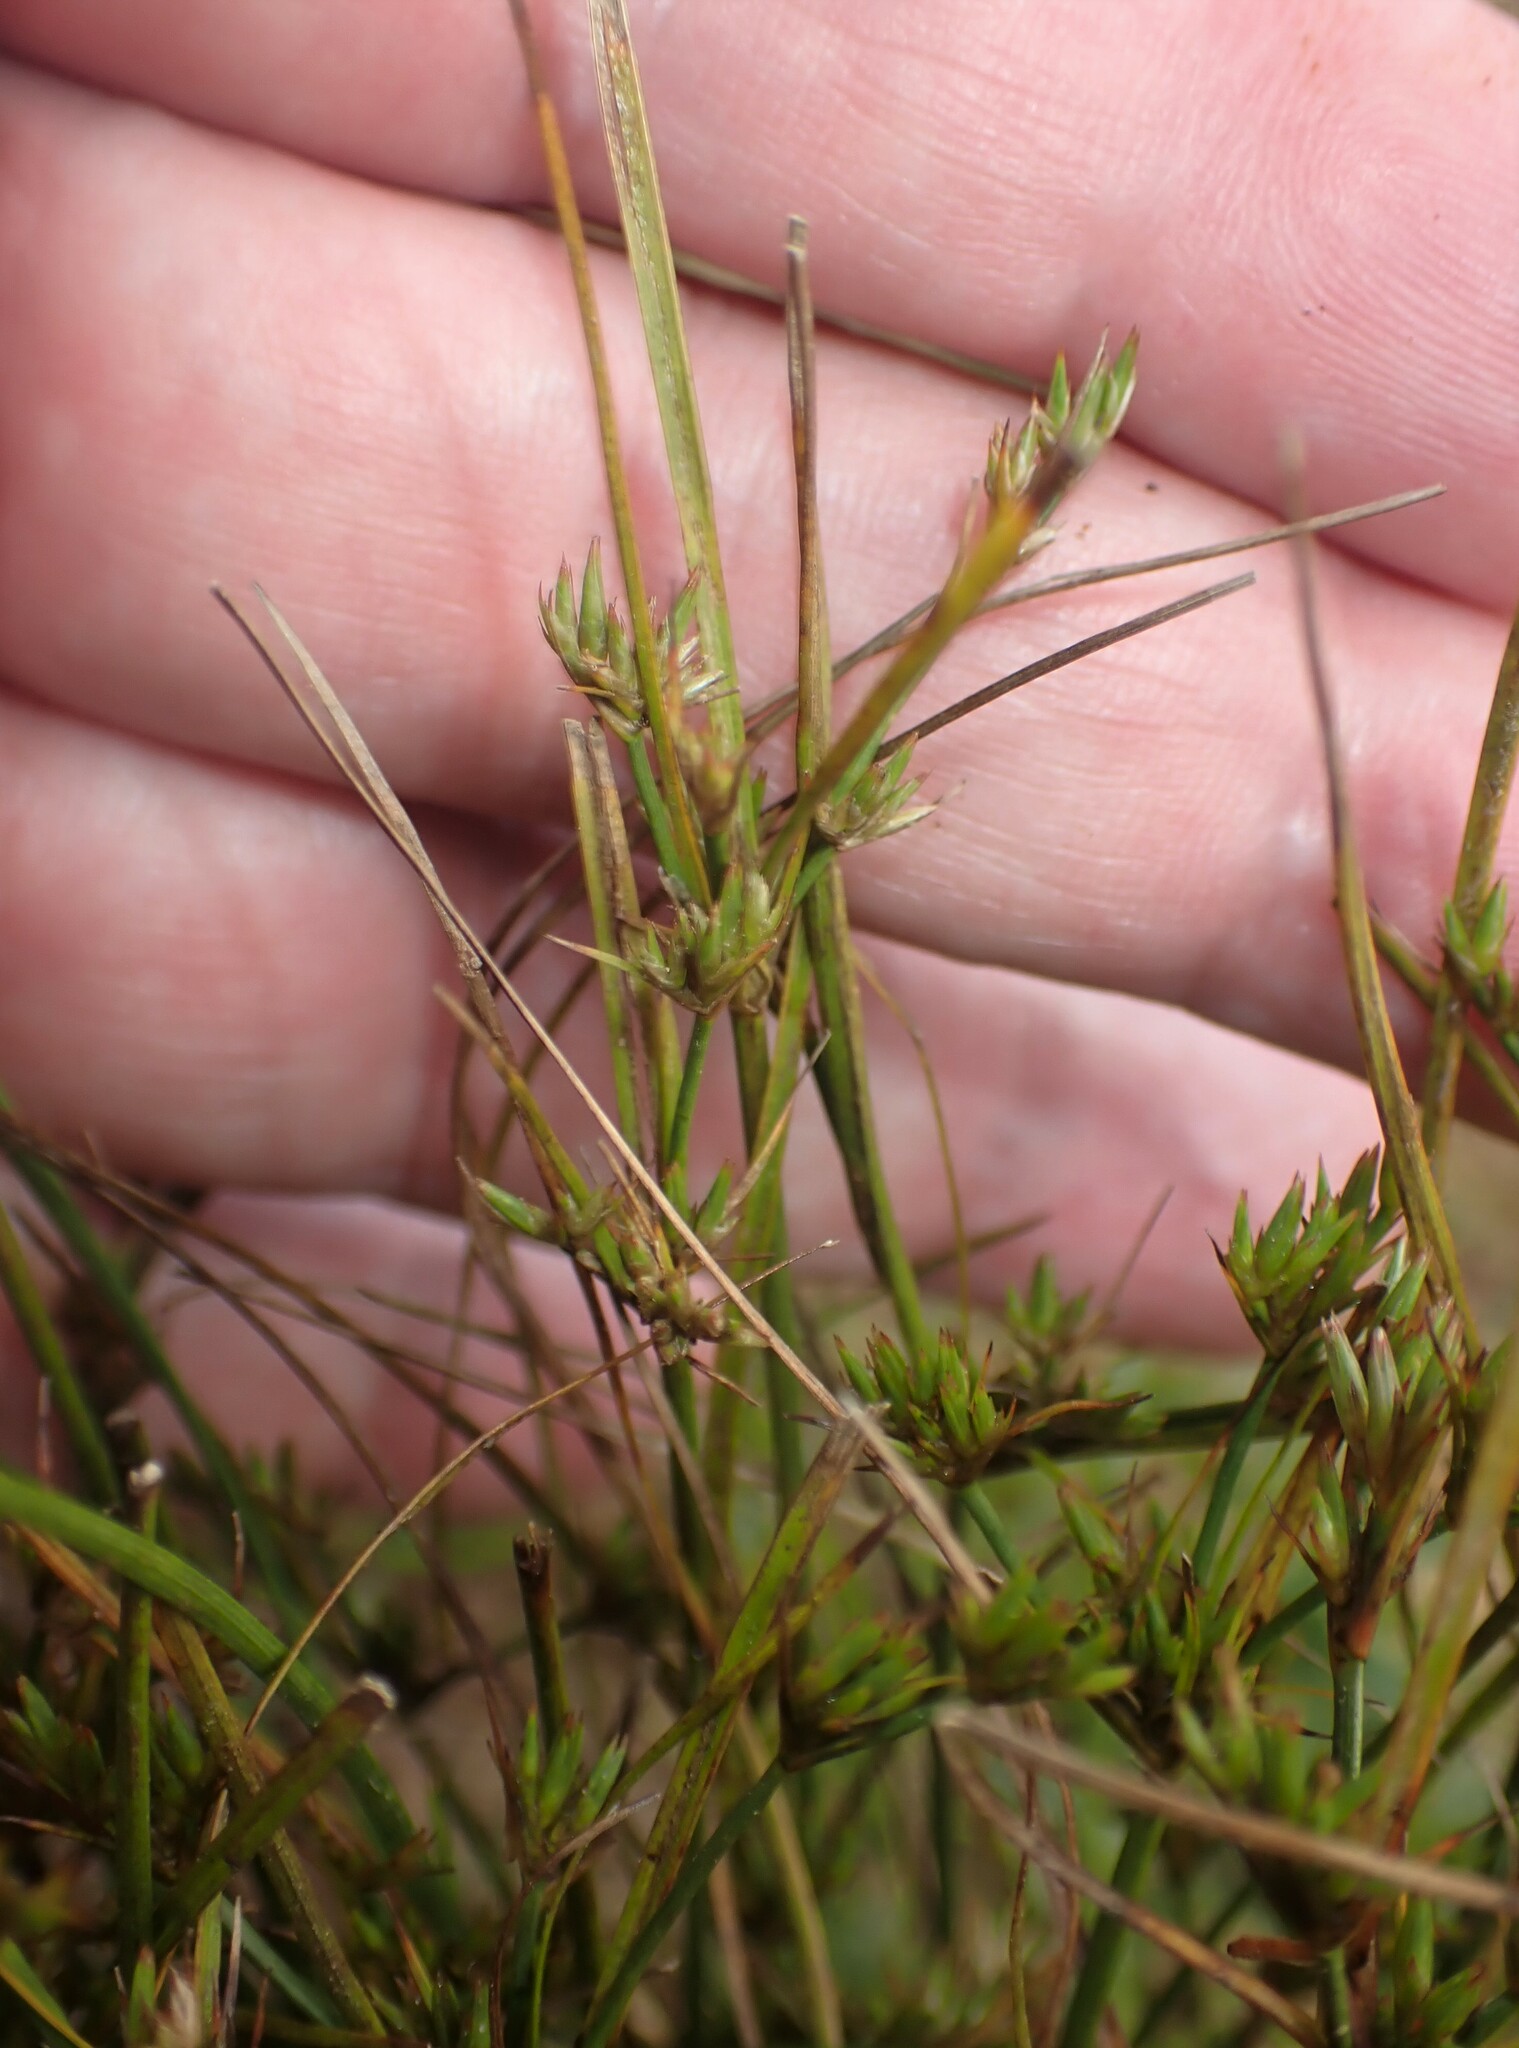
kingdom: Plantae
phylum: Tracheophyta
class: Liliopsida
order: Poales
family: Juncaceae
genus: Juncus
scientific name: Juncus tenuis
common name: Slender rush
